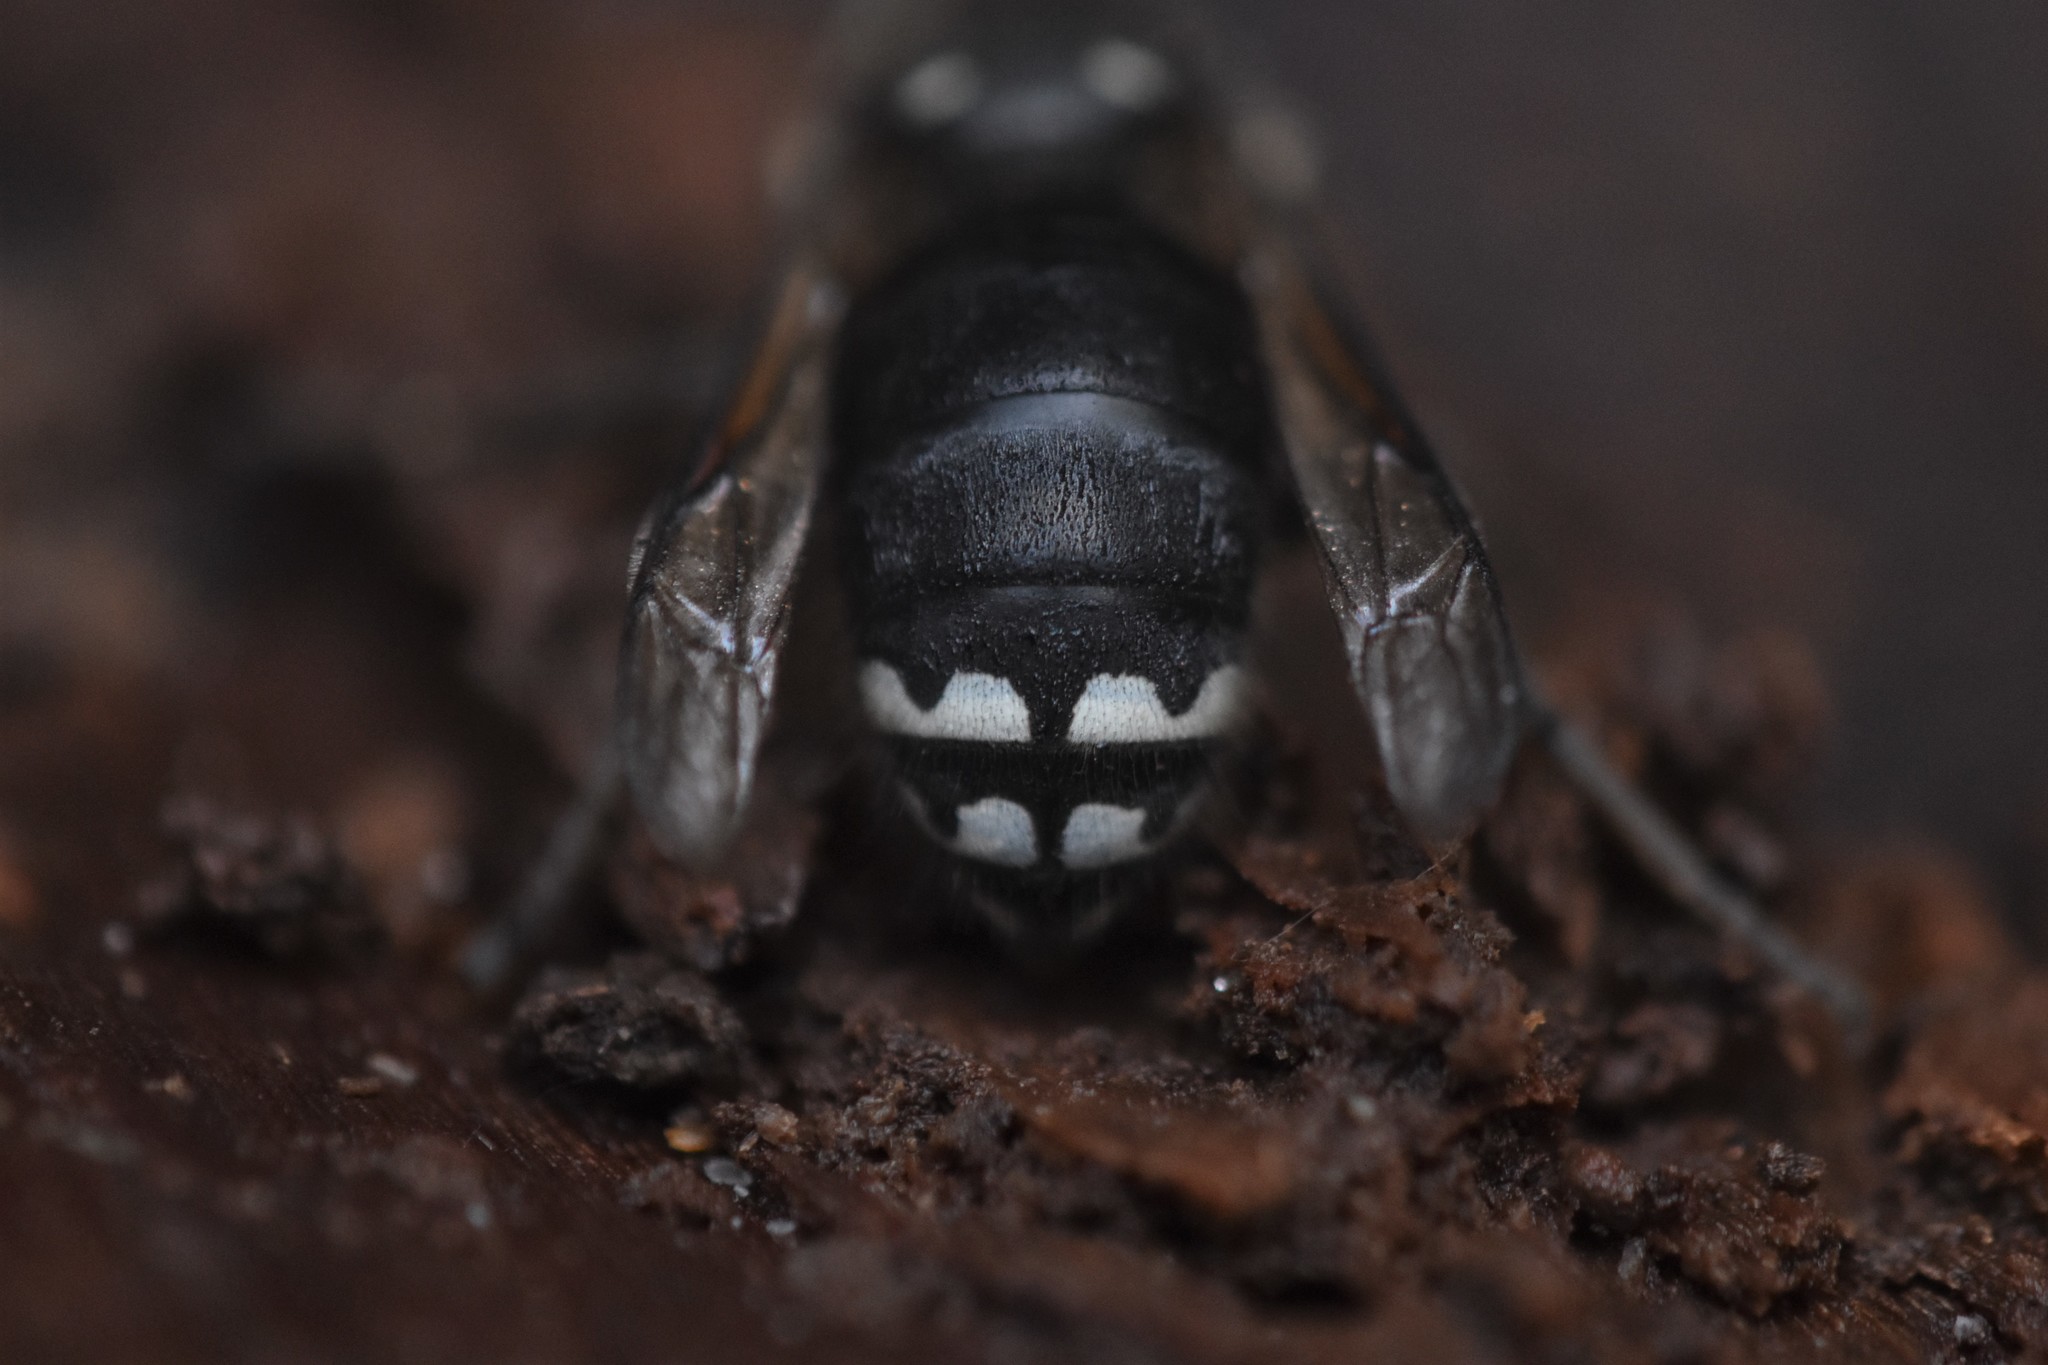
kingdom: Animalia
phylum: Arthropoda
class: Insecta
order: Hymenoptera
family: Vespidae
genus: Dolichovespula
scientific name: Dolichovespula maculata
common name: Bald-faced hornet
